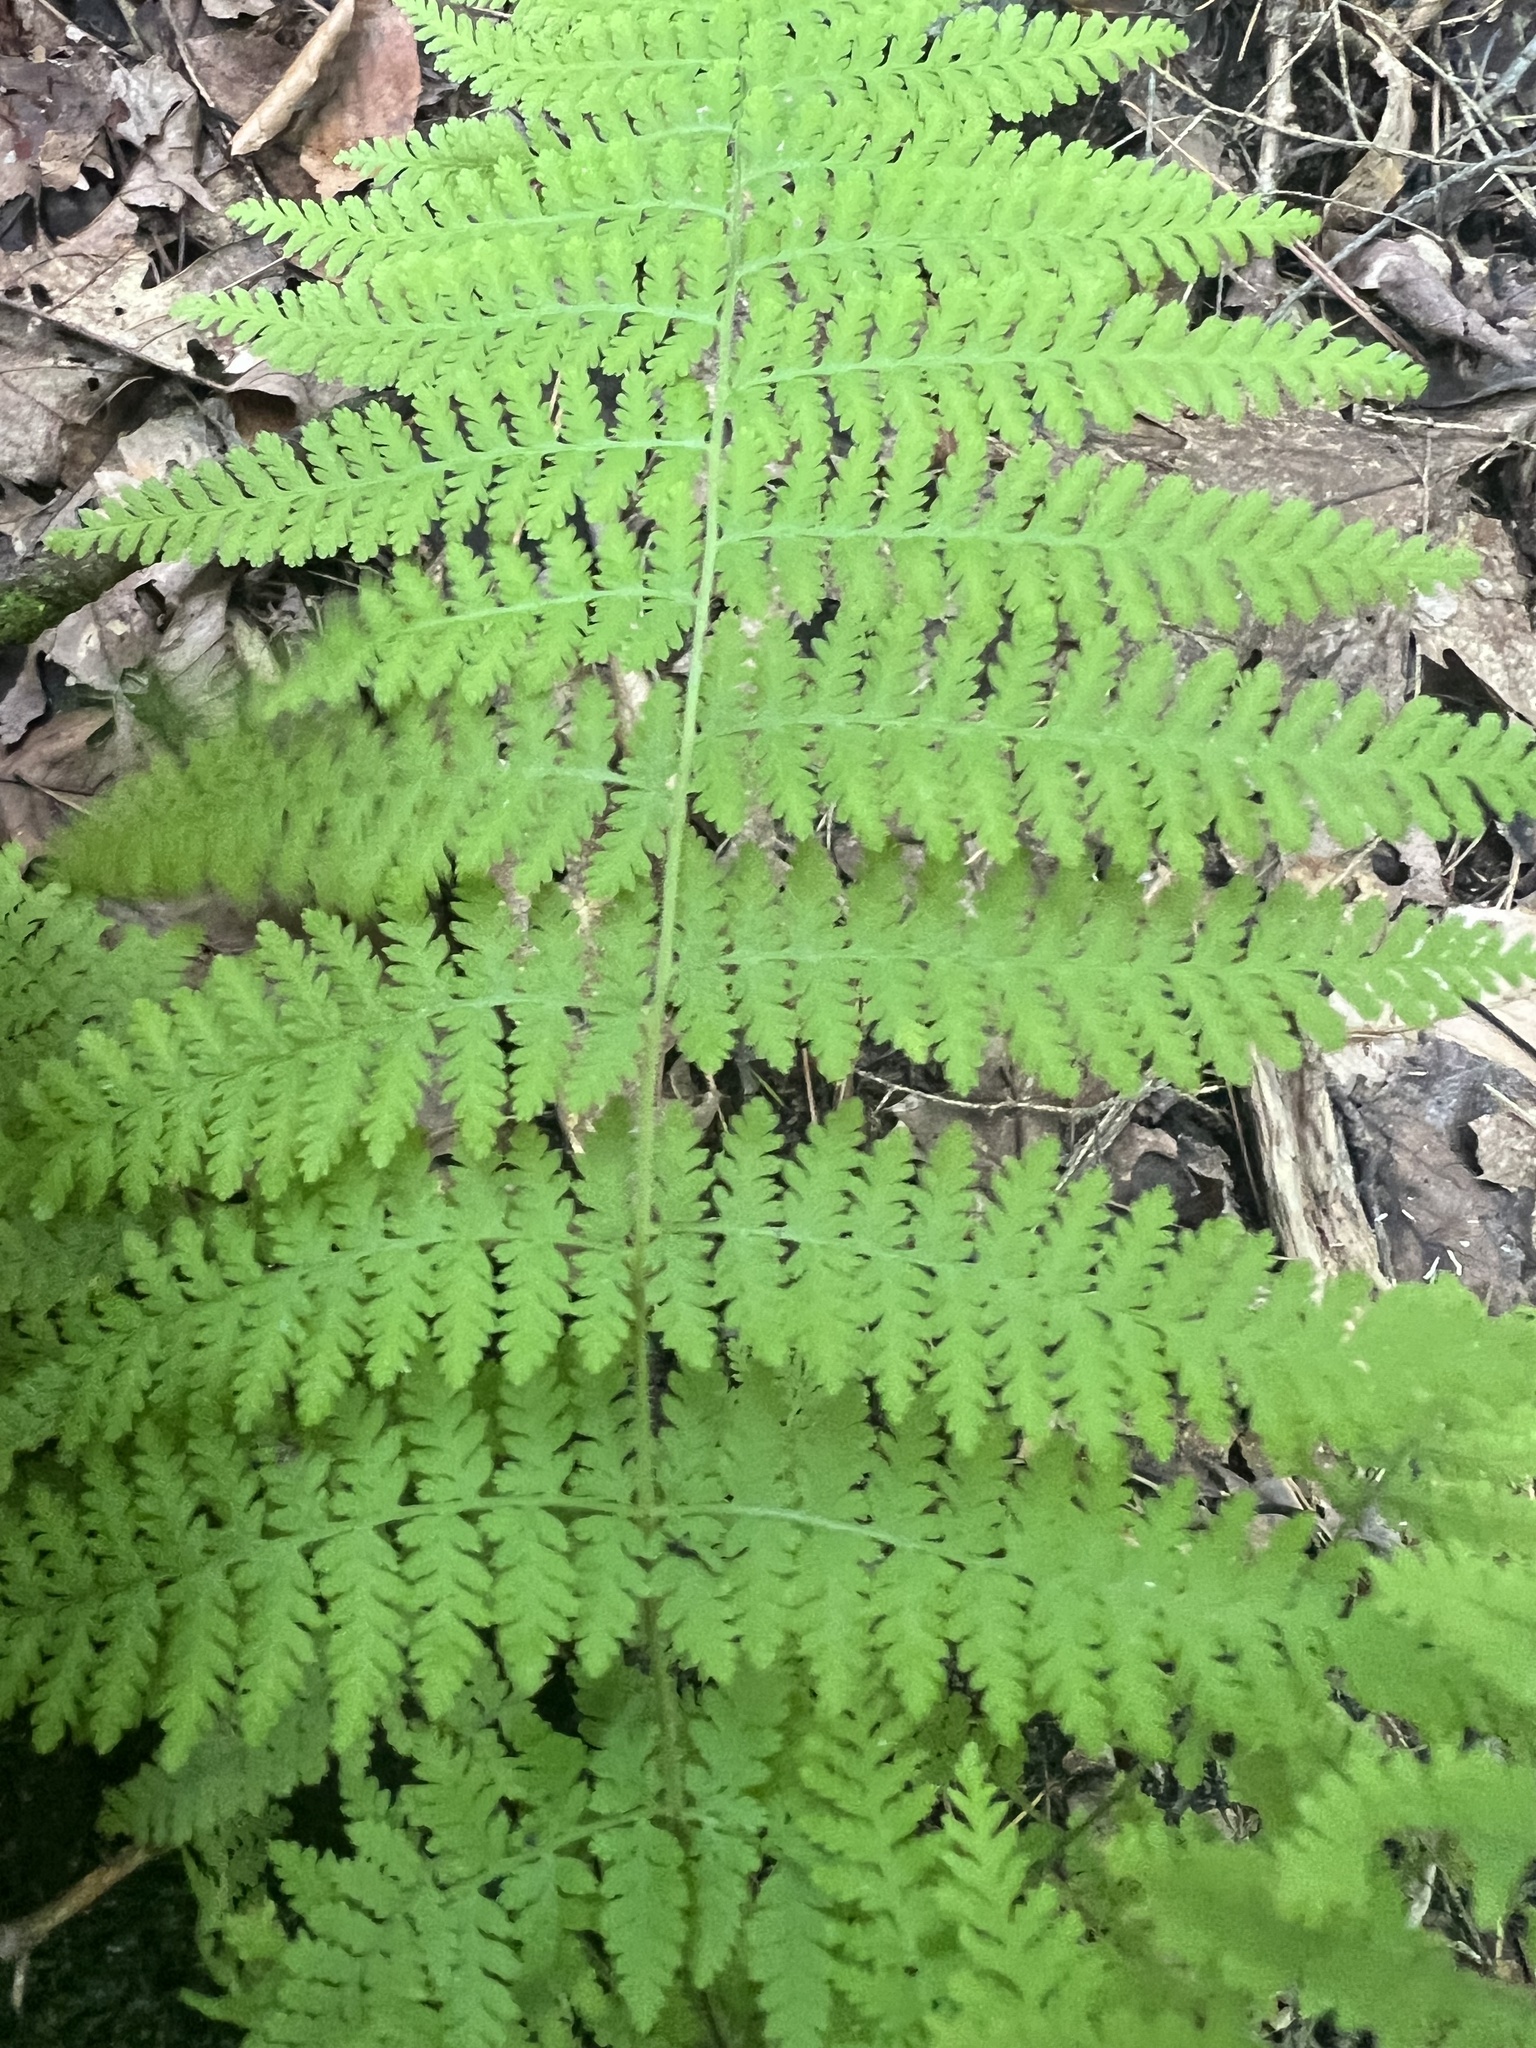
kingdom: Plantae
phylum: Tracheophyta
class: Polypodiopsida
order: Polypodiales
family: Dennstaedtiaceae
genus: Sitobolium
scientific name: Sitobolium punctilobum
